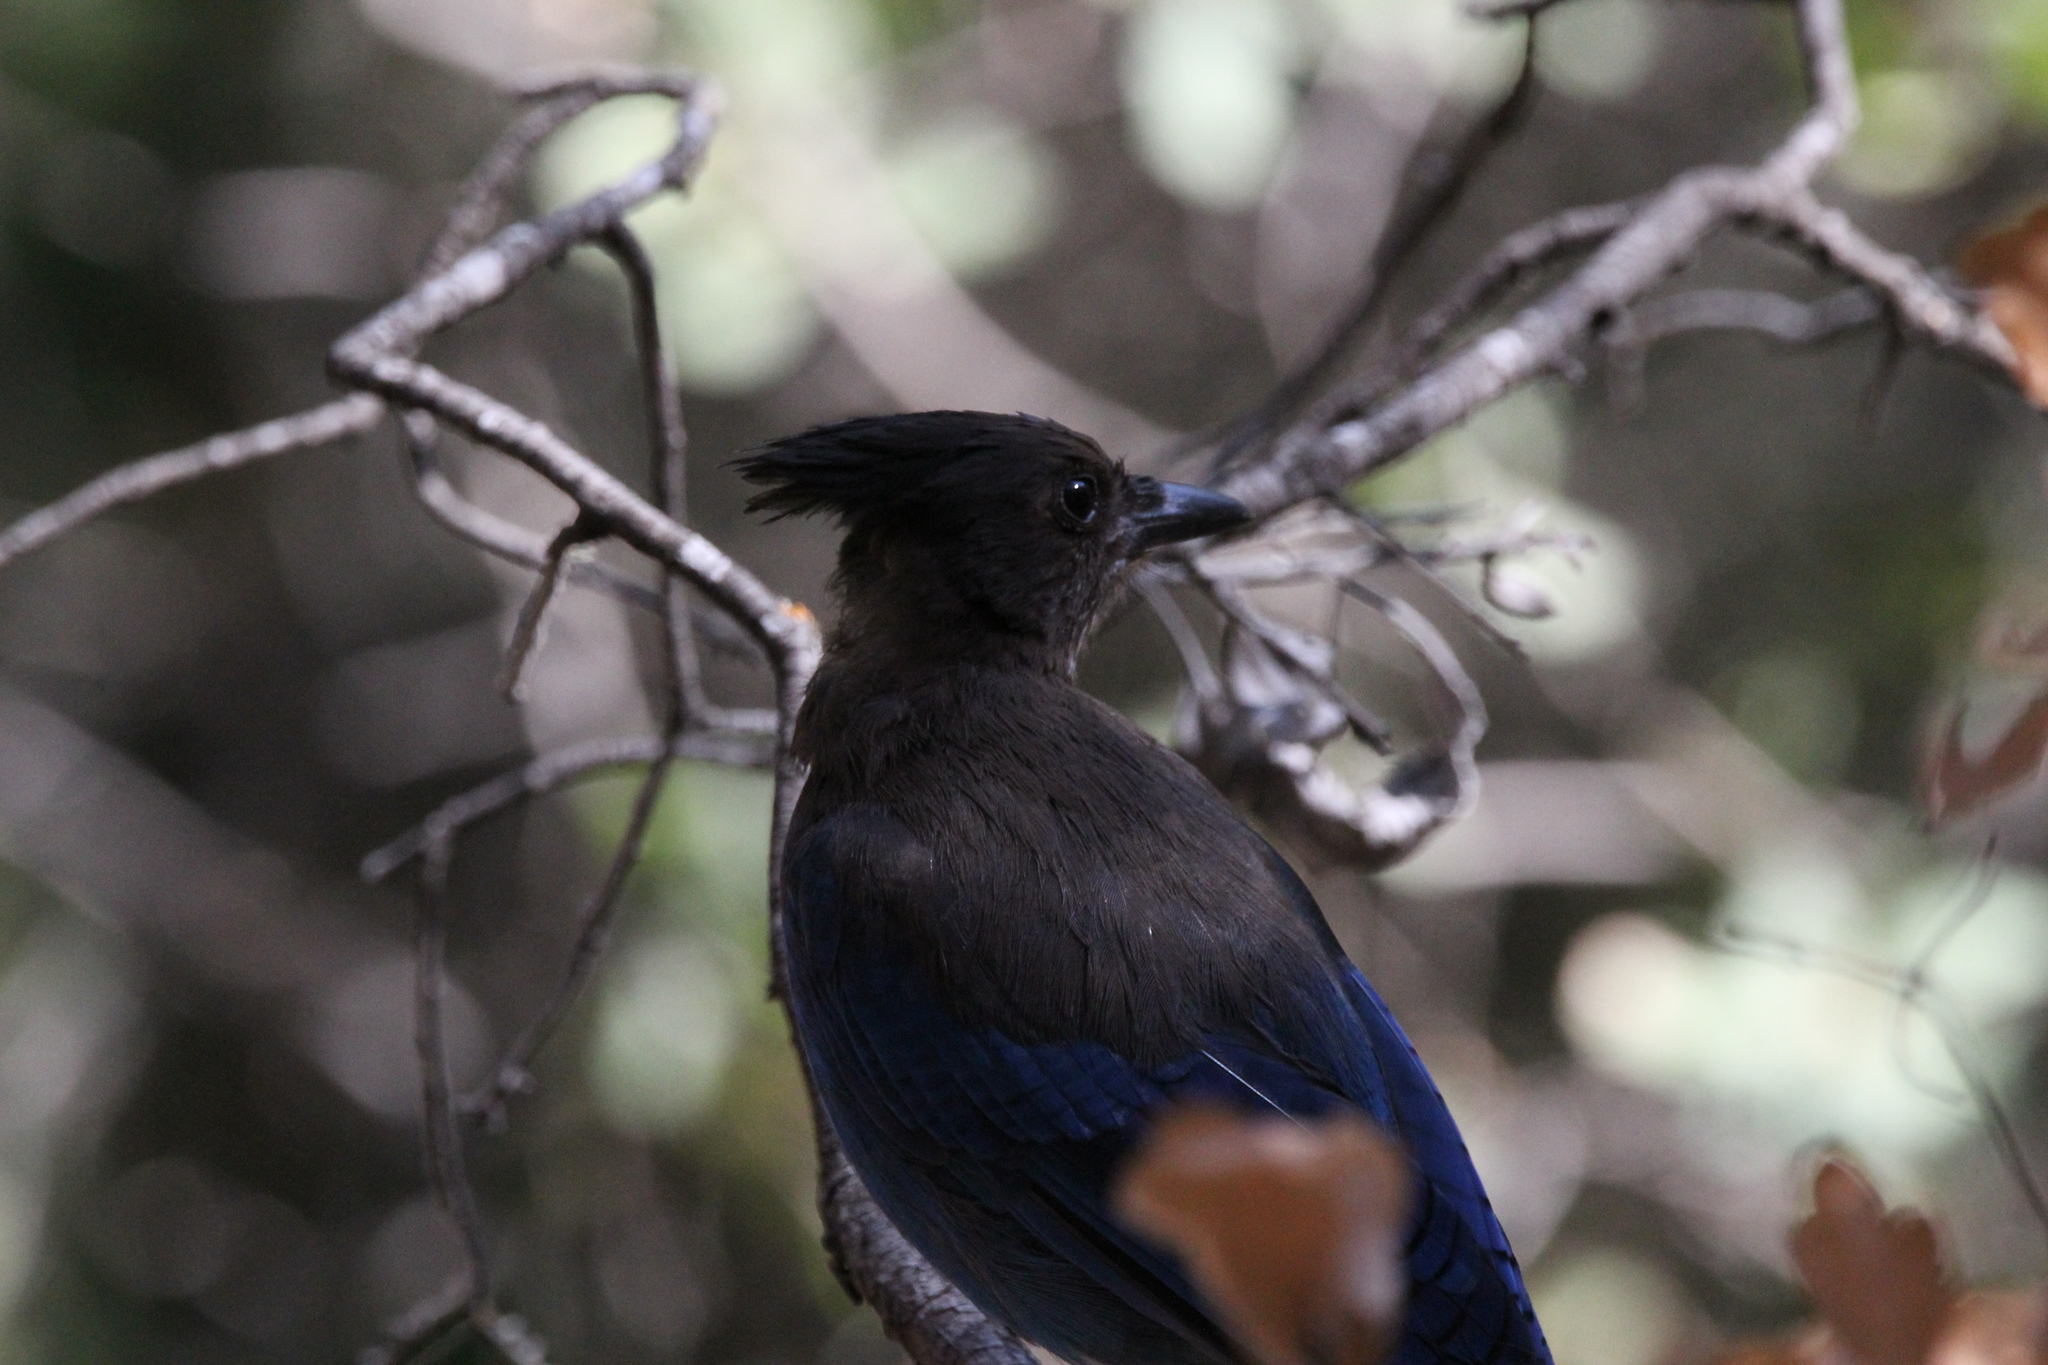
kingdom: Animalia
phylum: Chordata
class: Aves
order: Passeriformes
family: Corvidae
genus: Cyanocitta
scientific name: Cyanocitta stelleri
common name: Steller's jay
